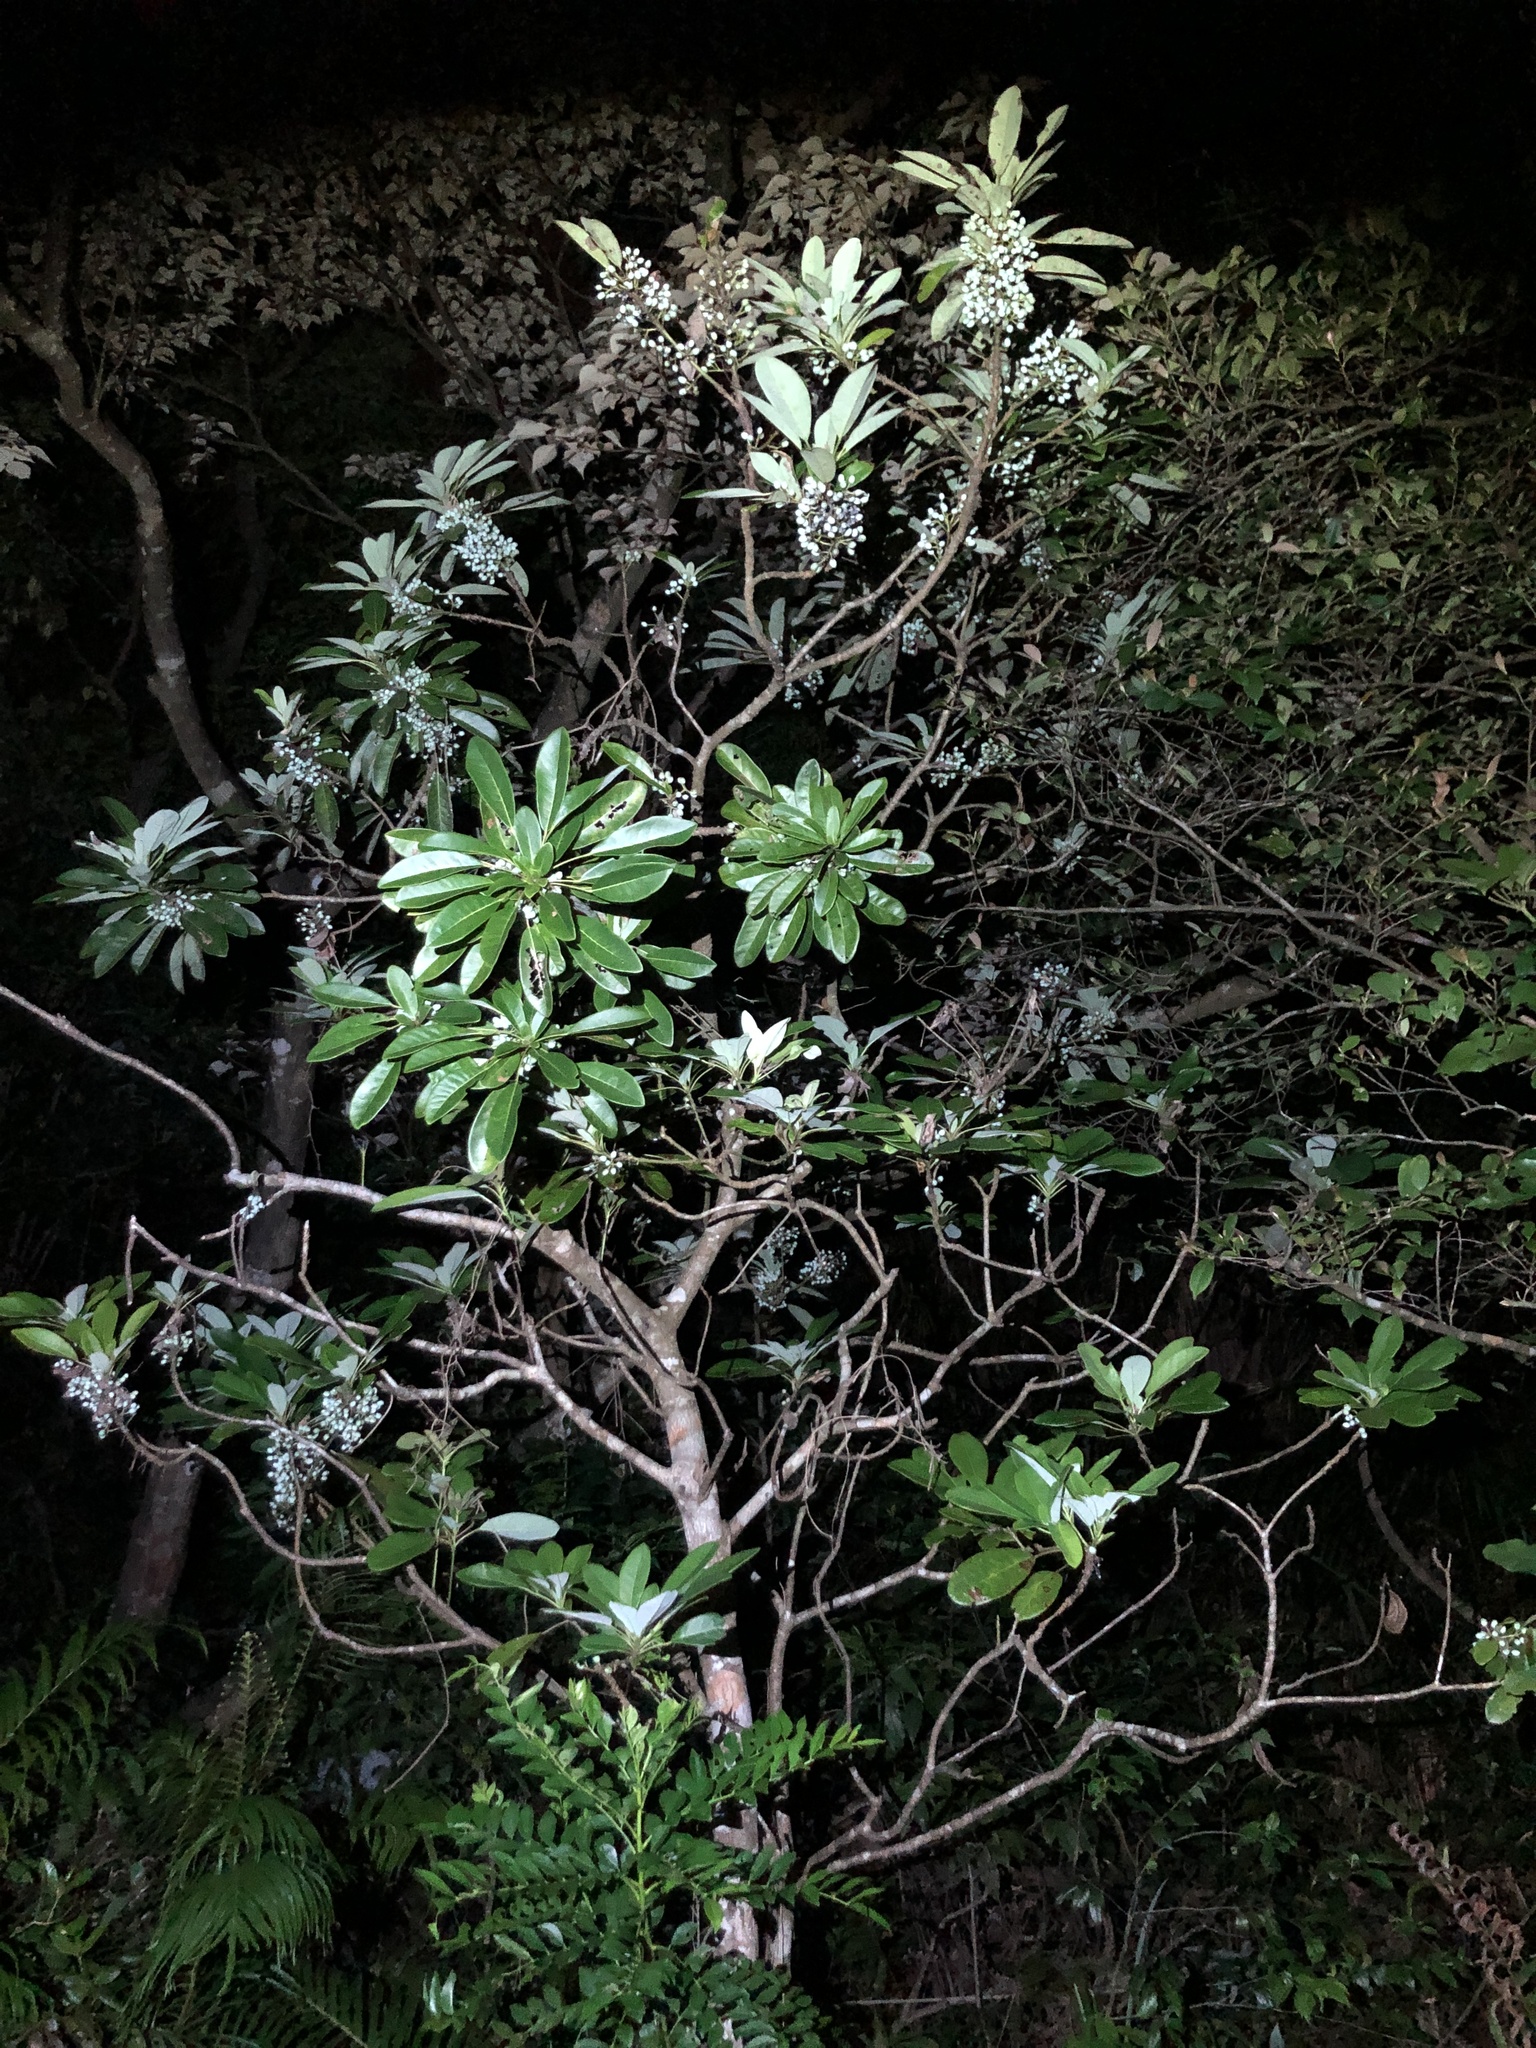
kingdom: Plantae
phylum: Tracheophyta
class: Magnoliopsida
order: Saxifragales
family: Daphniphyllaceae
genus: Daphniphyllum
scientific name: Daphniphyllum calycinum
